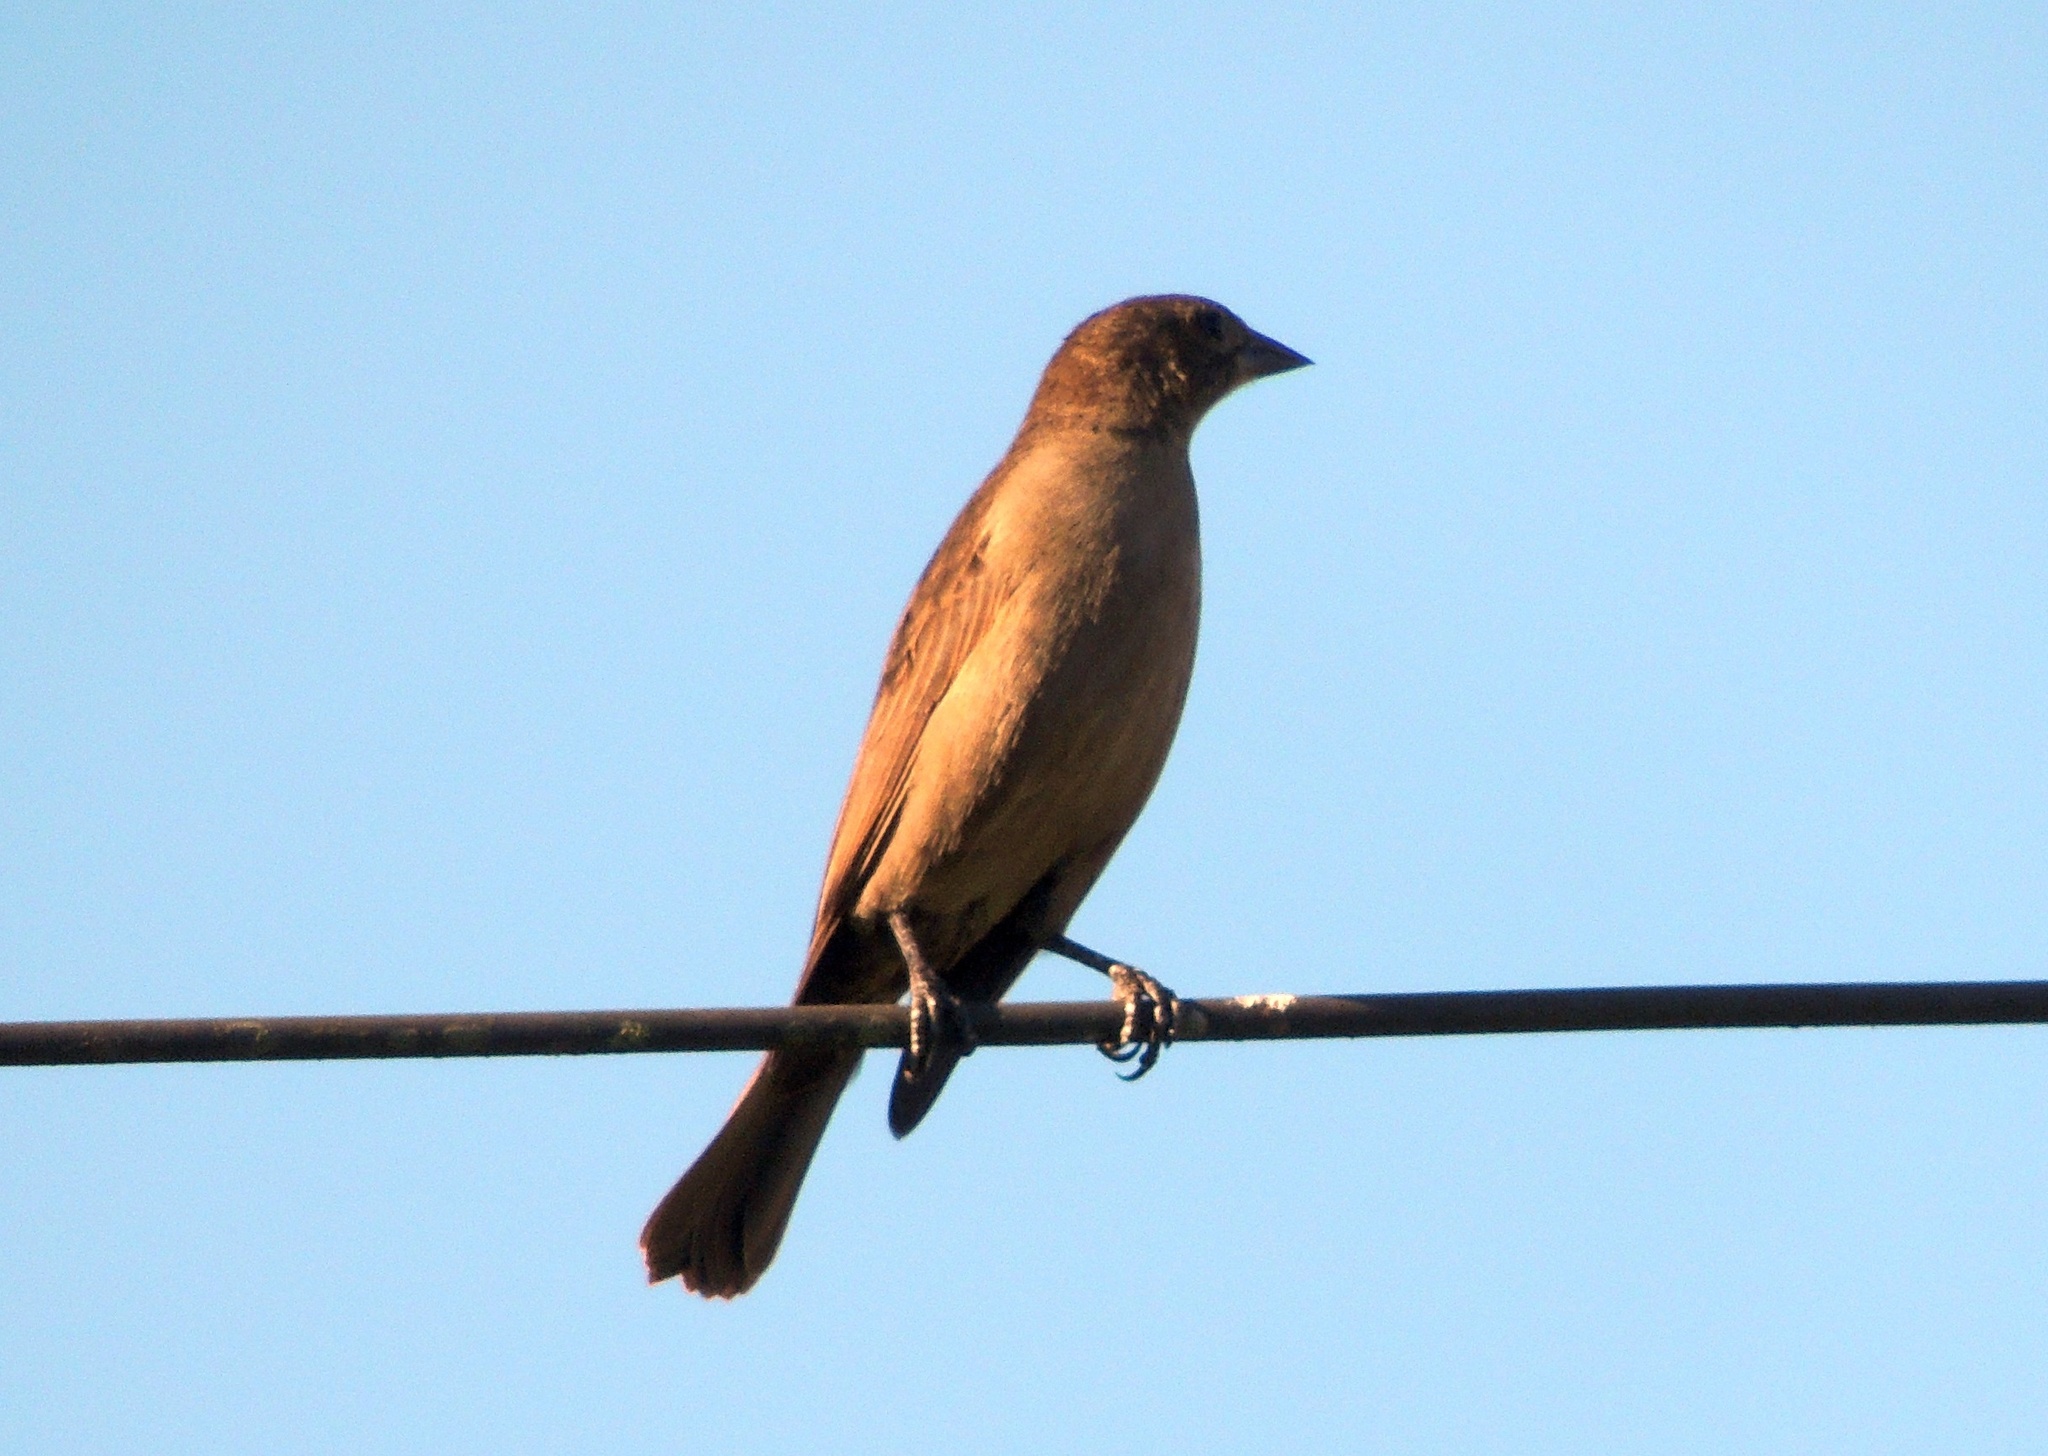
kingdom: Animalia
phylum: Chordata
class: Aves
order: Passeriformes
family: Icteridae
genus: Molothrus
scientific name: Molothrus bonariensis
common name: Shiny cowbird
